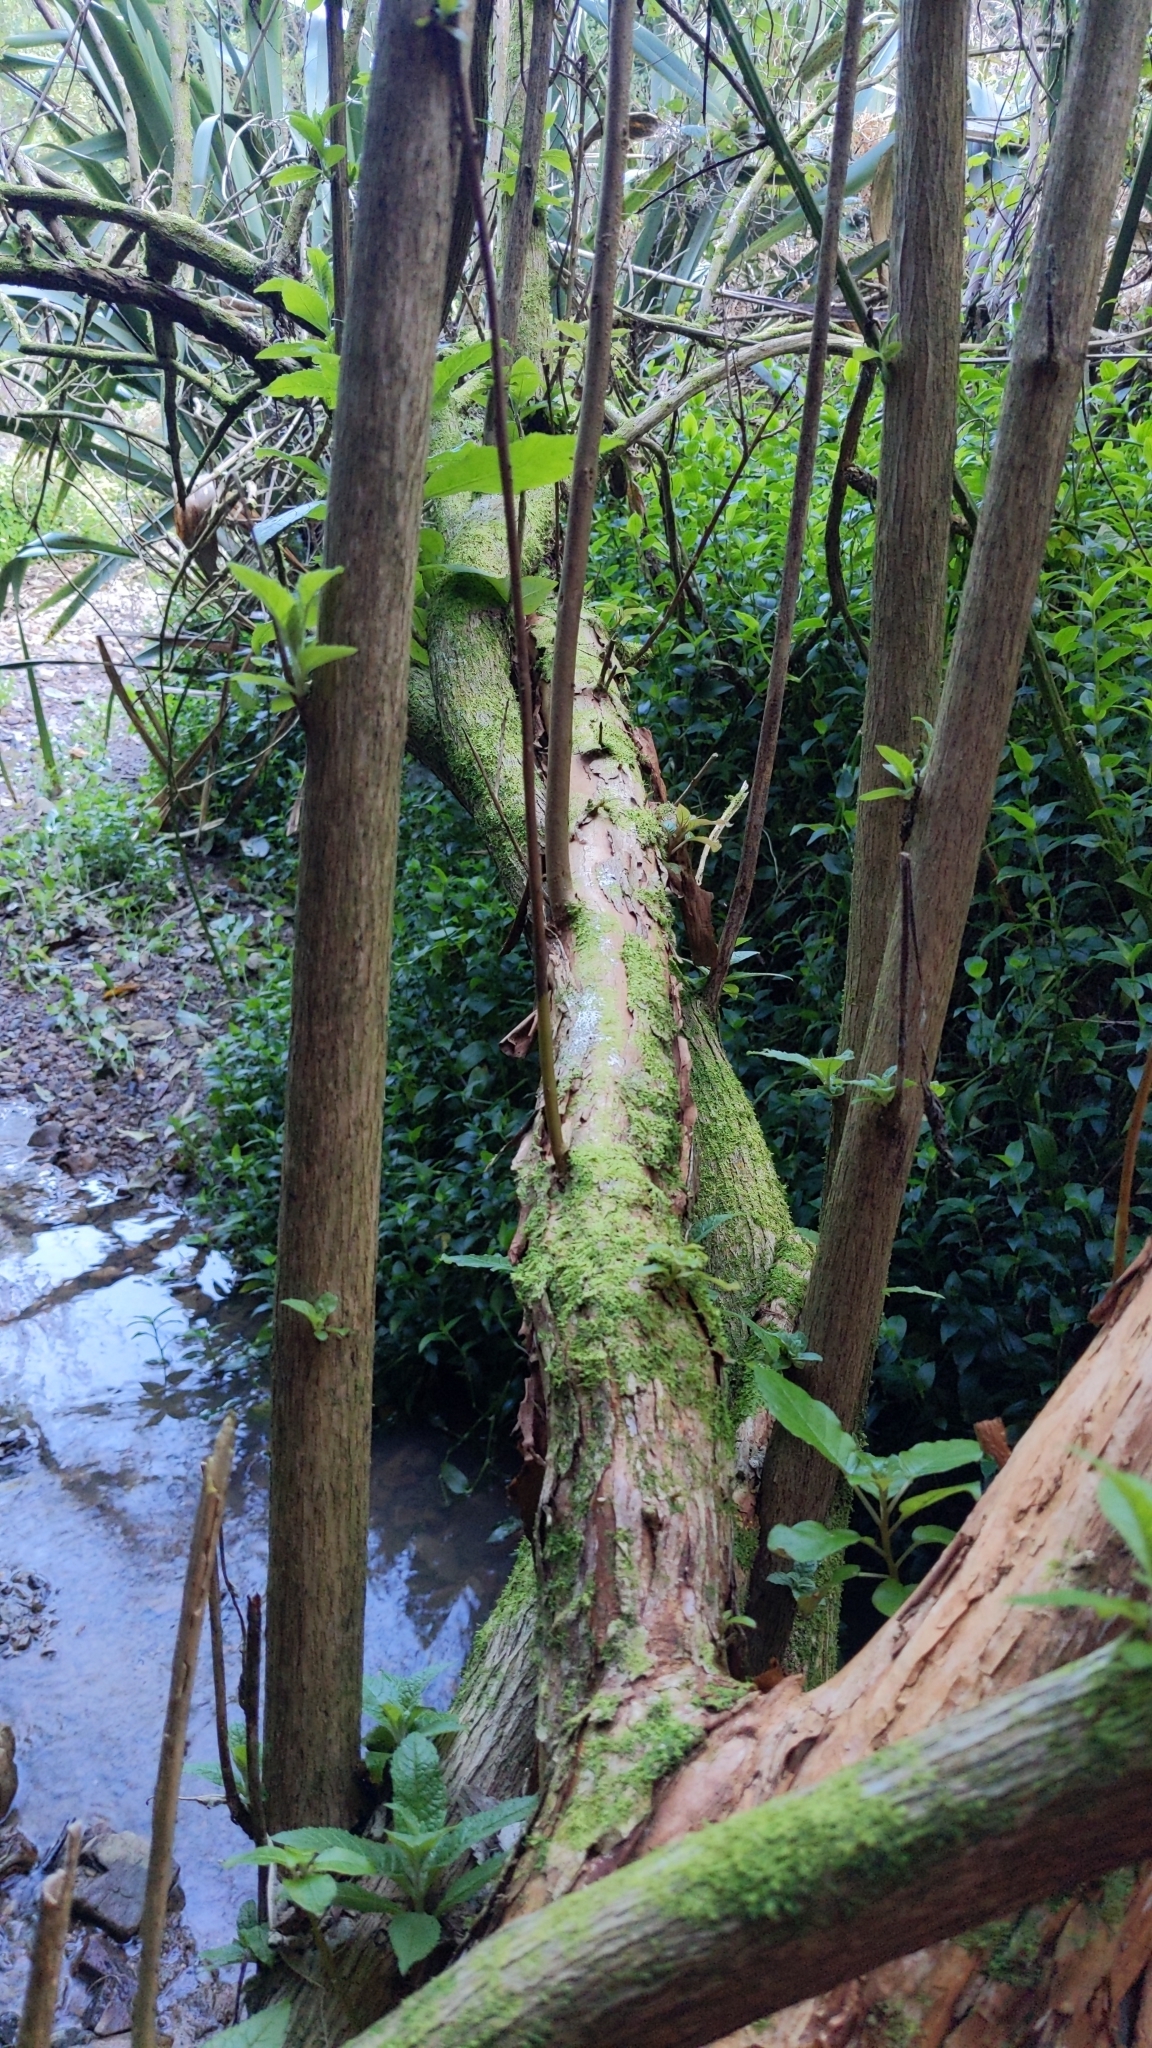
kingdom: Plantae
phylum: Tracheophyta
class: Magnoliopsida
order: Lamiales
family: Scrophulariaceae
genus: Buddleja
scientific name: Buddleja globosa
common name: Orange-ball-tree
